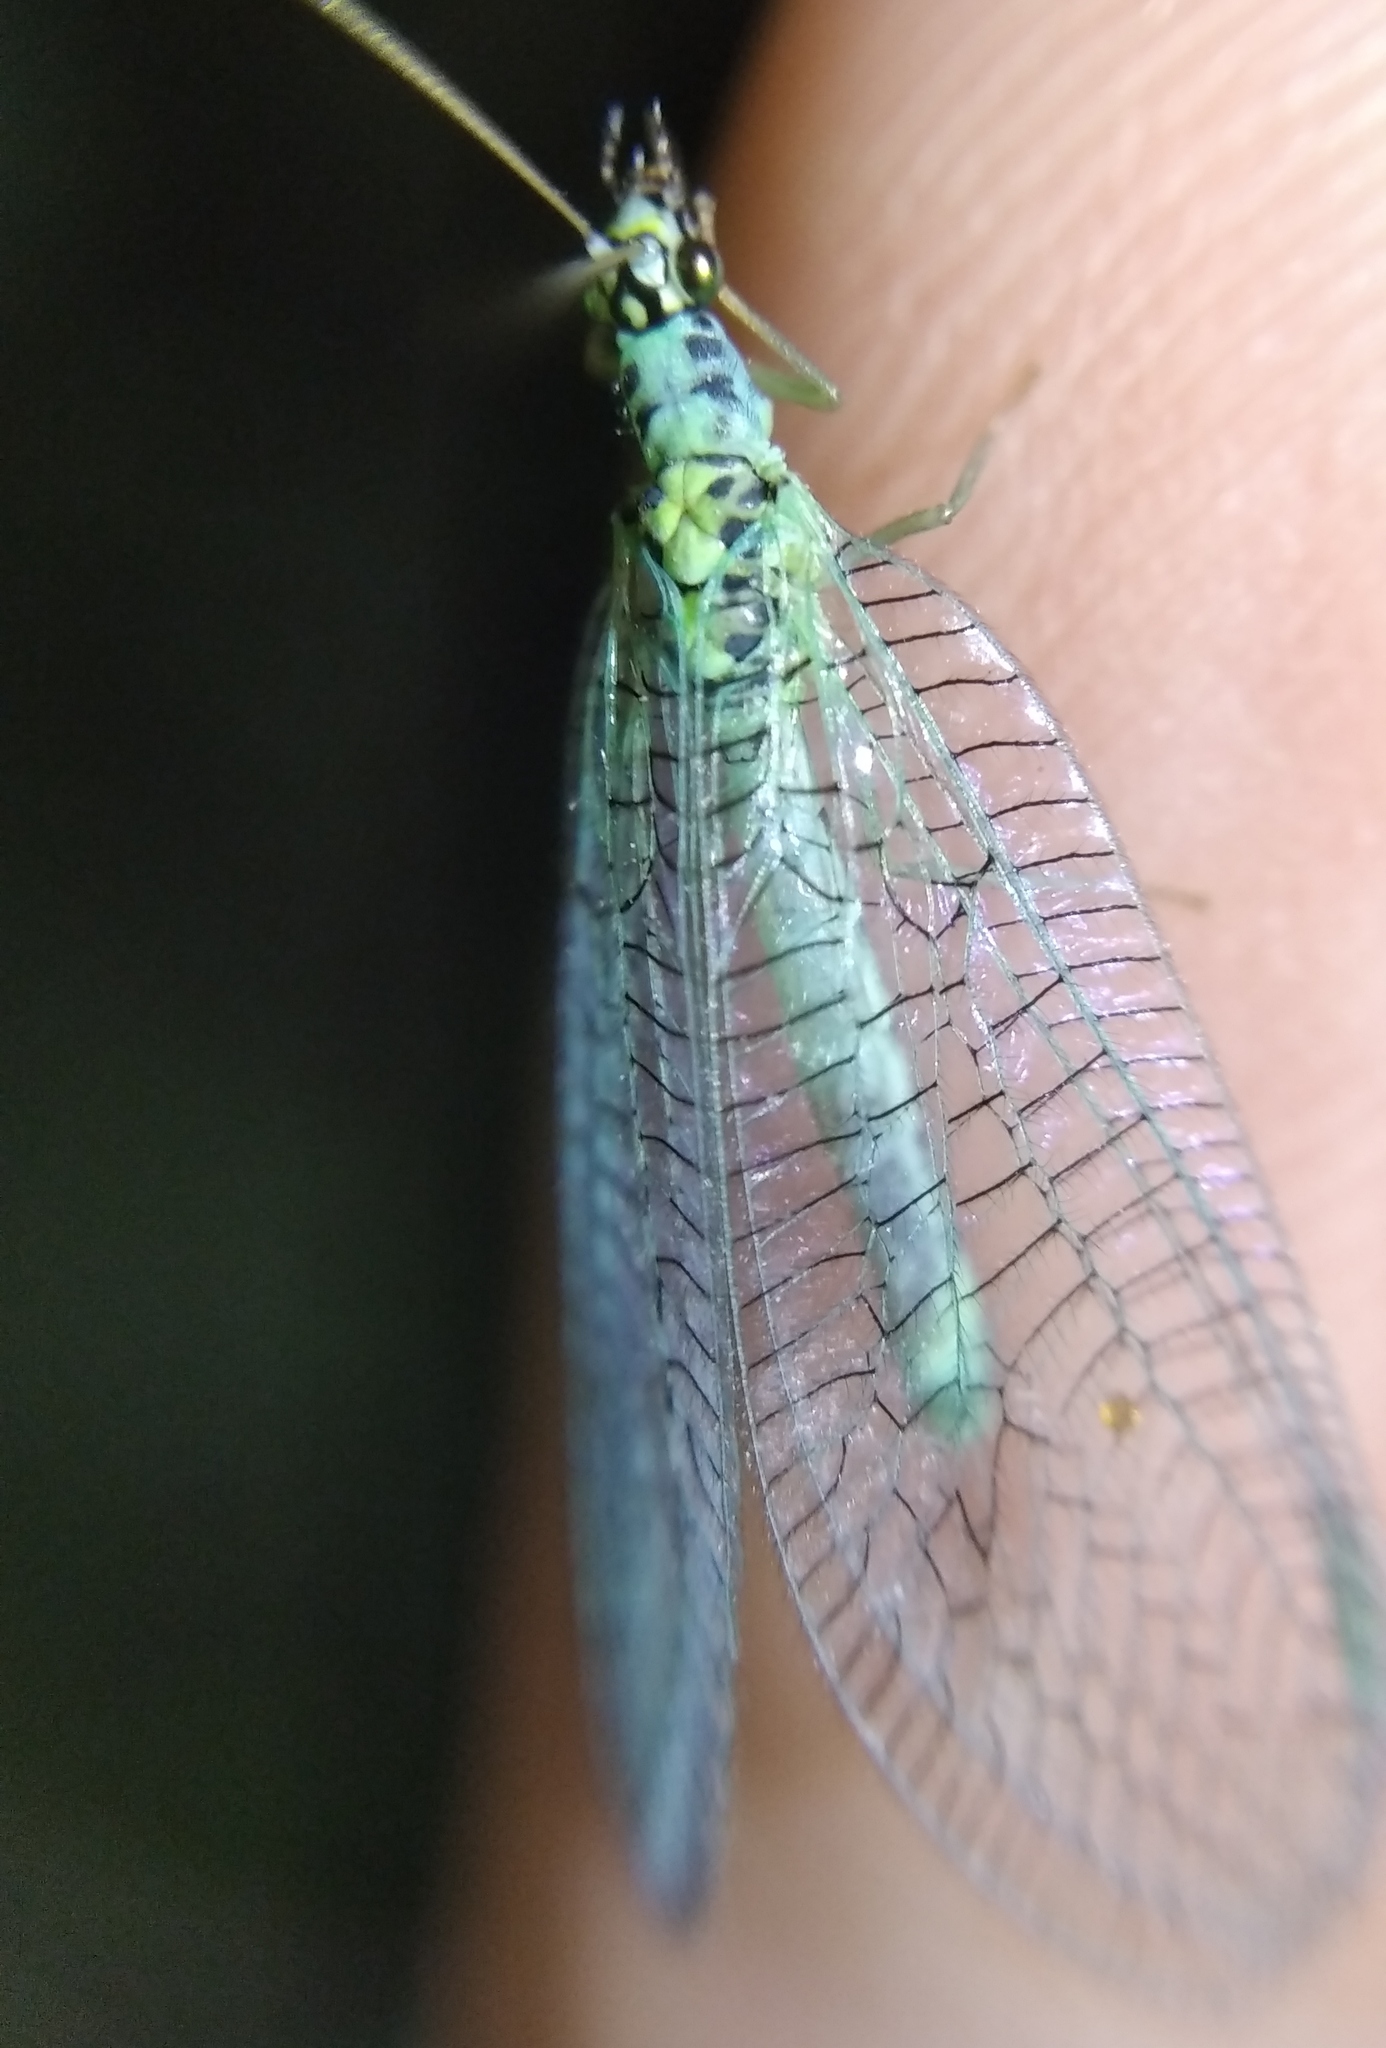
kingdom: Animalia
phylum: Arthropoda
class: Insecta
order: Neuroptera
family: Chrysopidae
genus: Chrysopa
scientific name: Chrysopa perla
